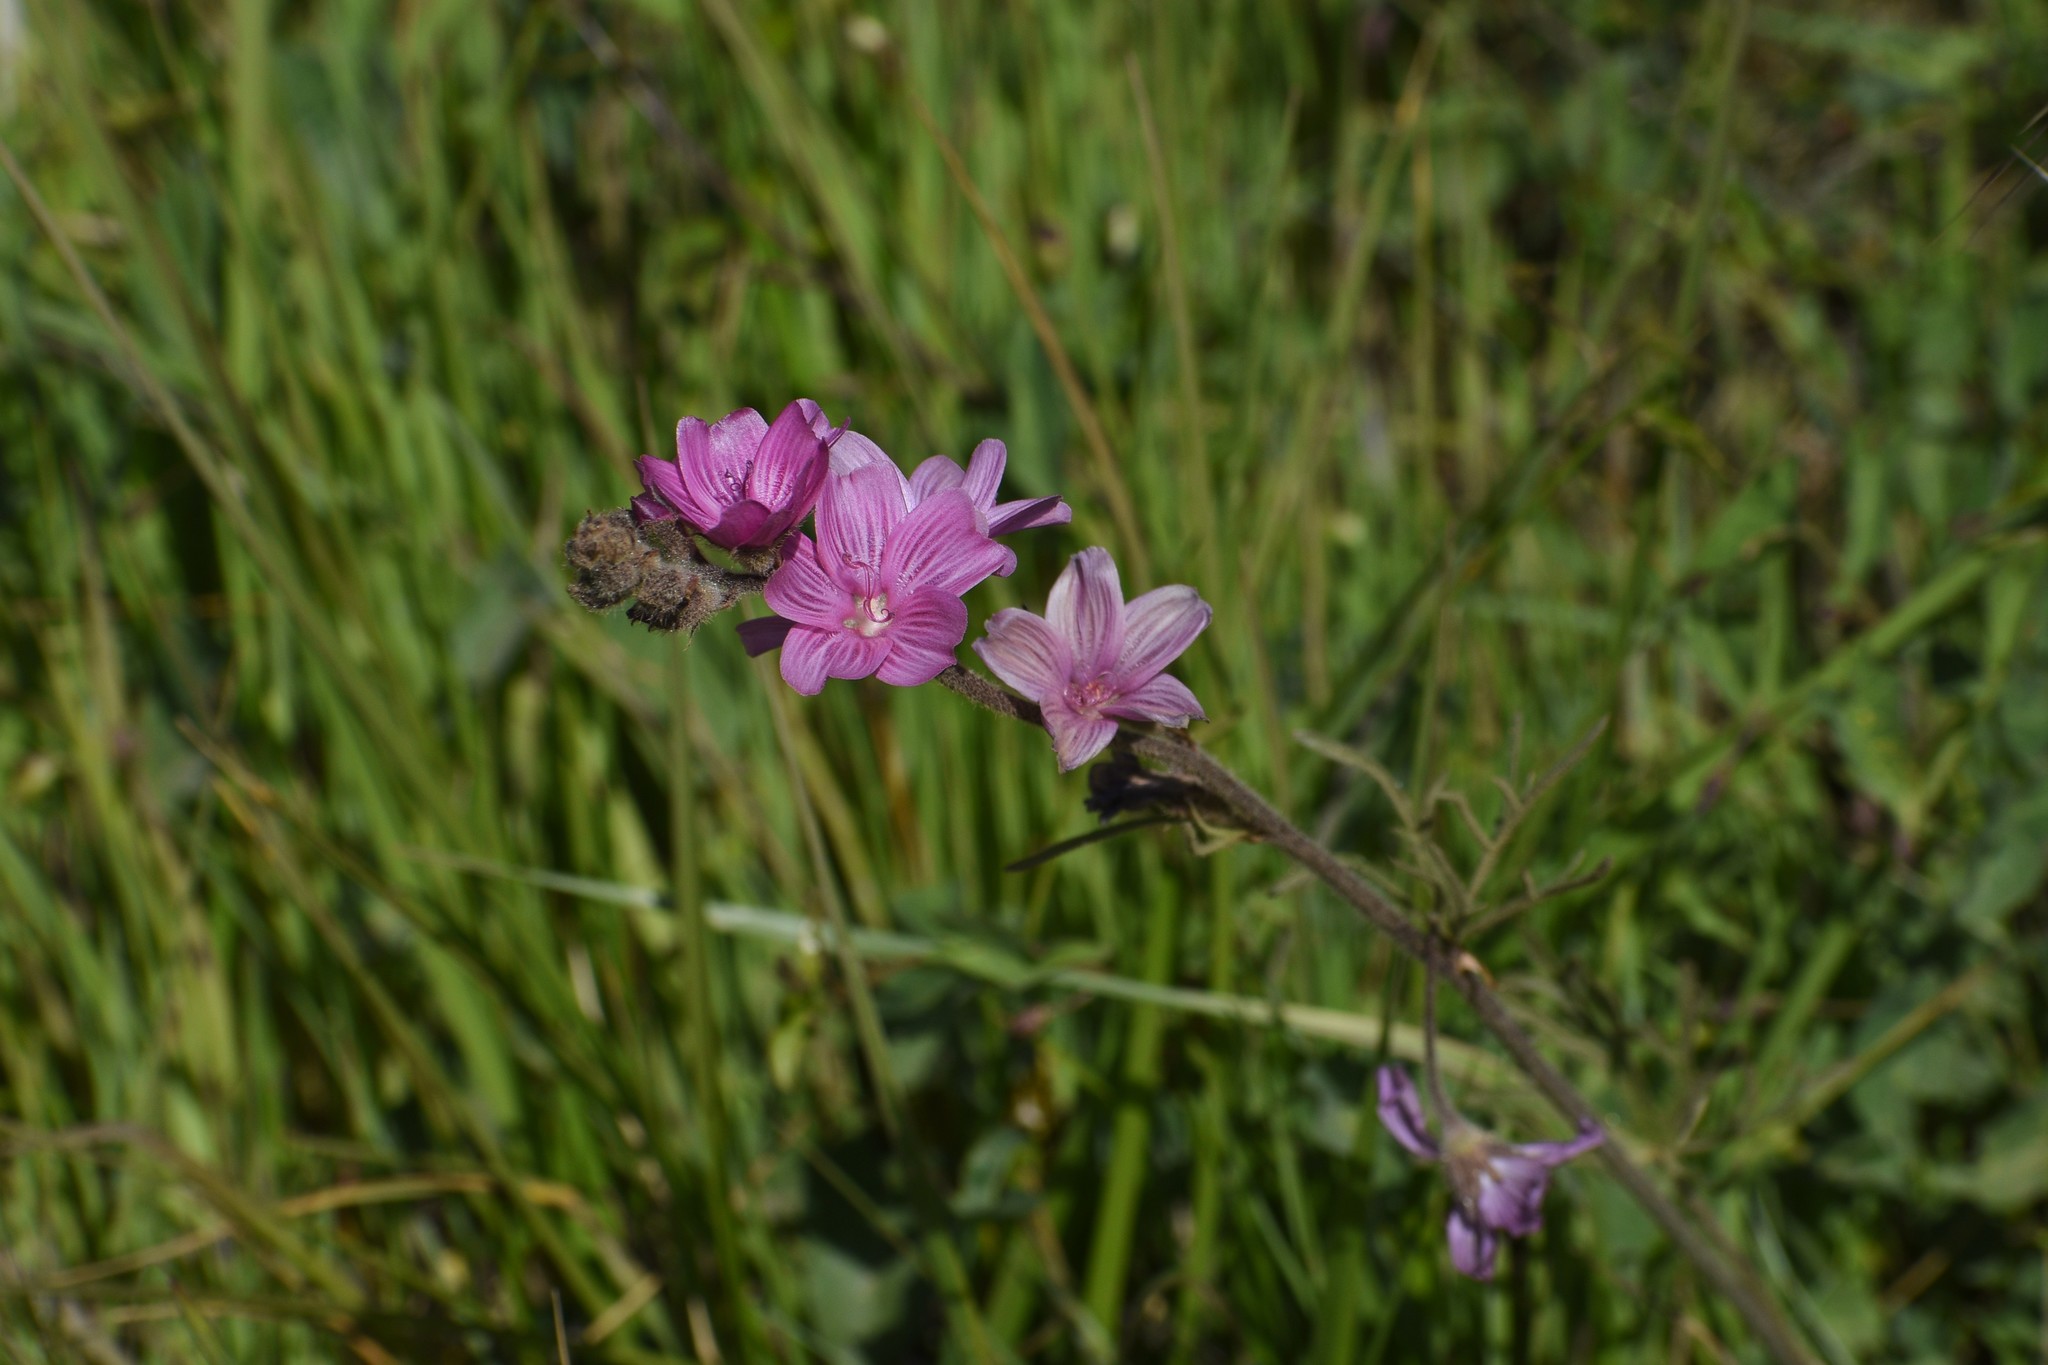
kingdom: Plantae
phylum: Tracheophyta
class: Magnoliopsida
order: Malvales
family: Malvaceae
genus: Sidalcea
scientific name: Sidalcea malviflora
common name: Greek mallow
